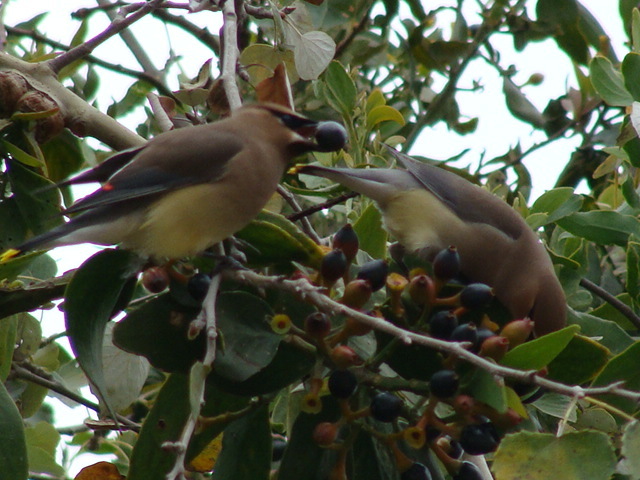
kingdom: Animalia
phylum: Chordata
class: Aves
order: Passeriformes
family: Bombycillidae
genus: Bombycilla
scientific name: Bombycilla cedrorum
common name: Cedar waxwing
